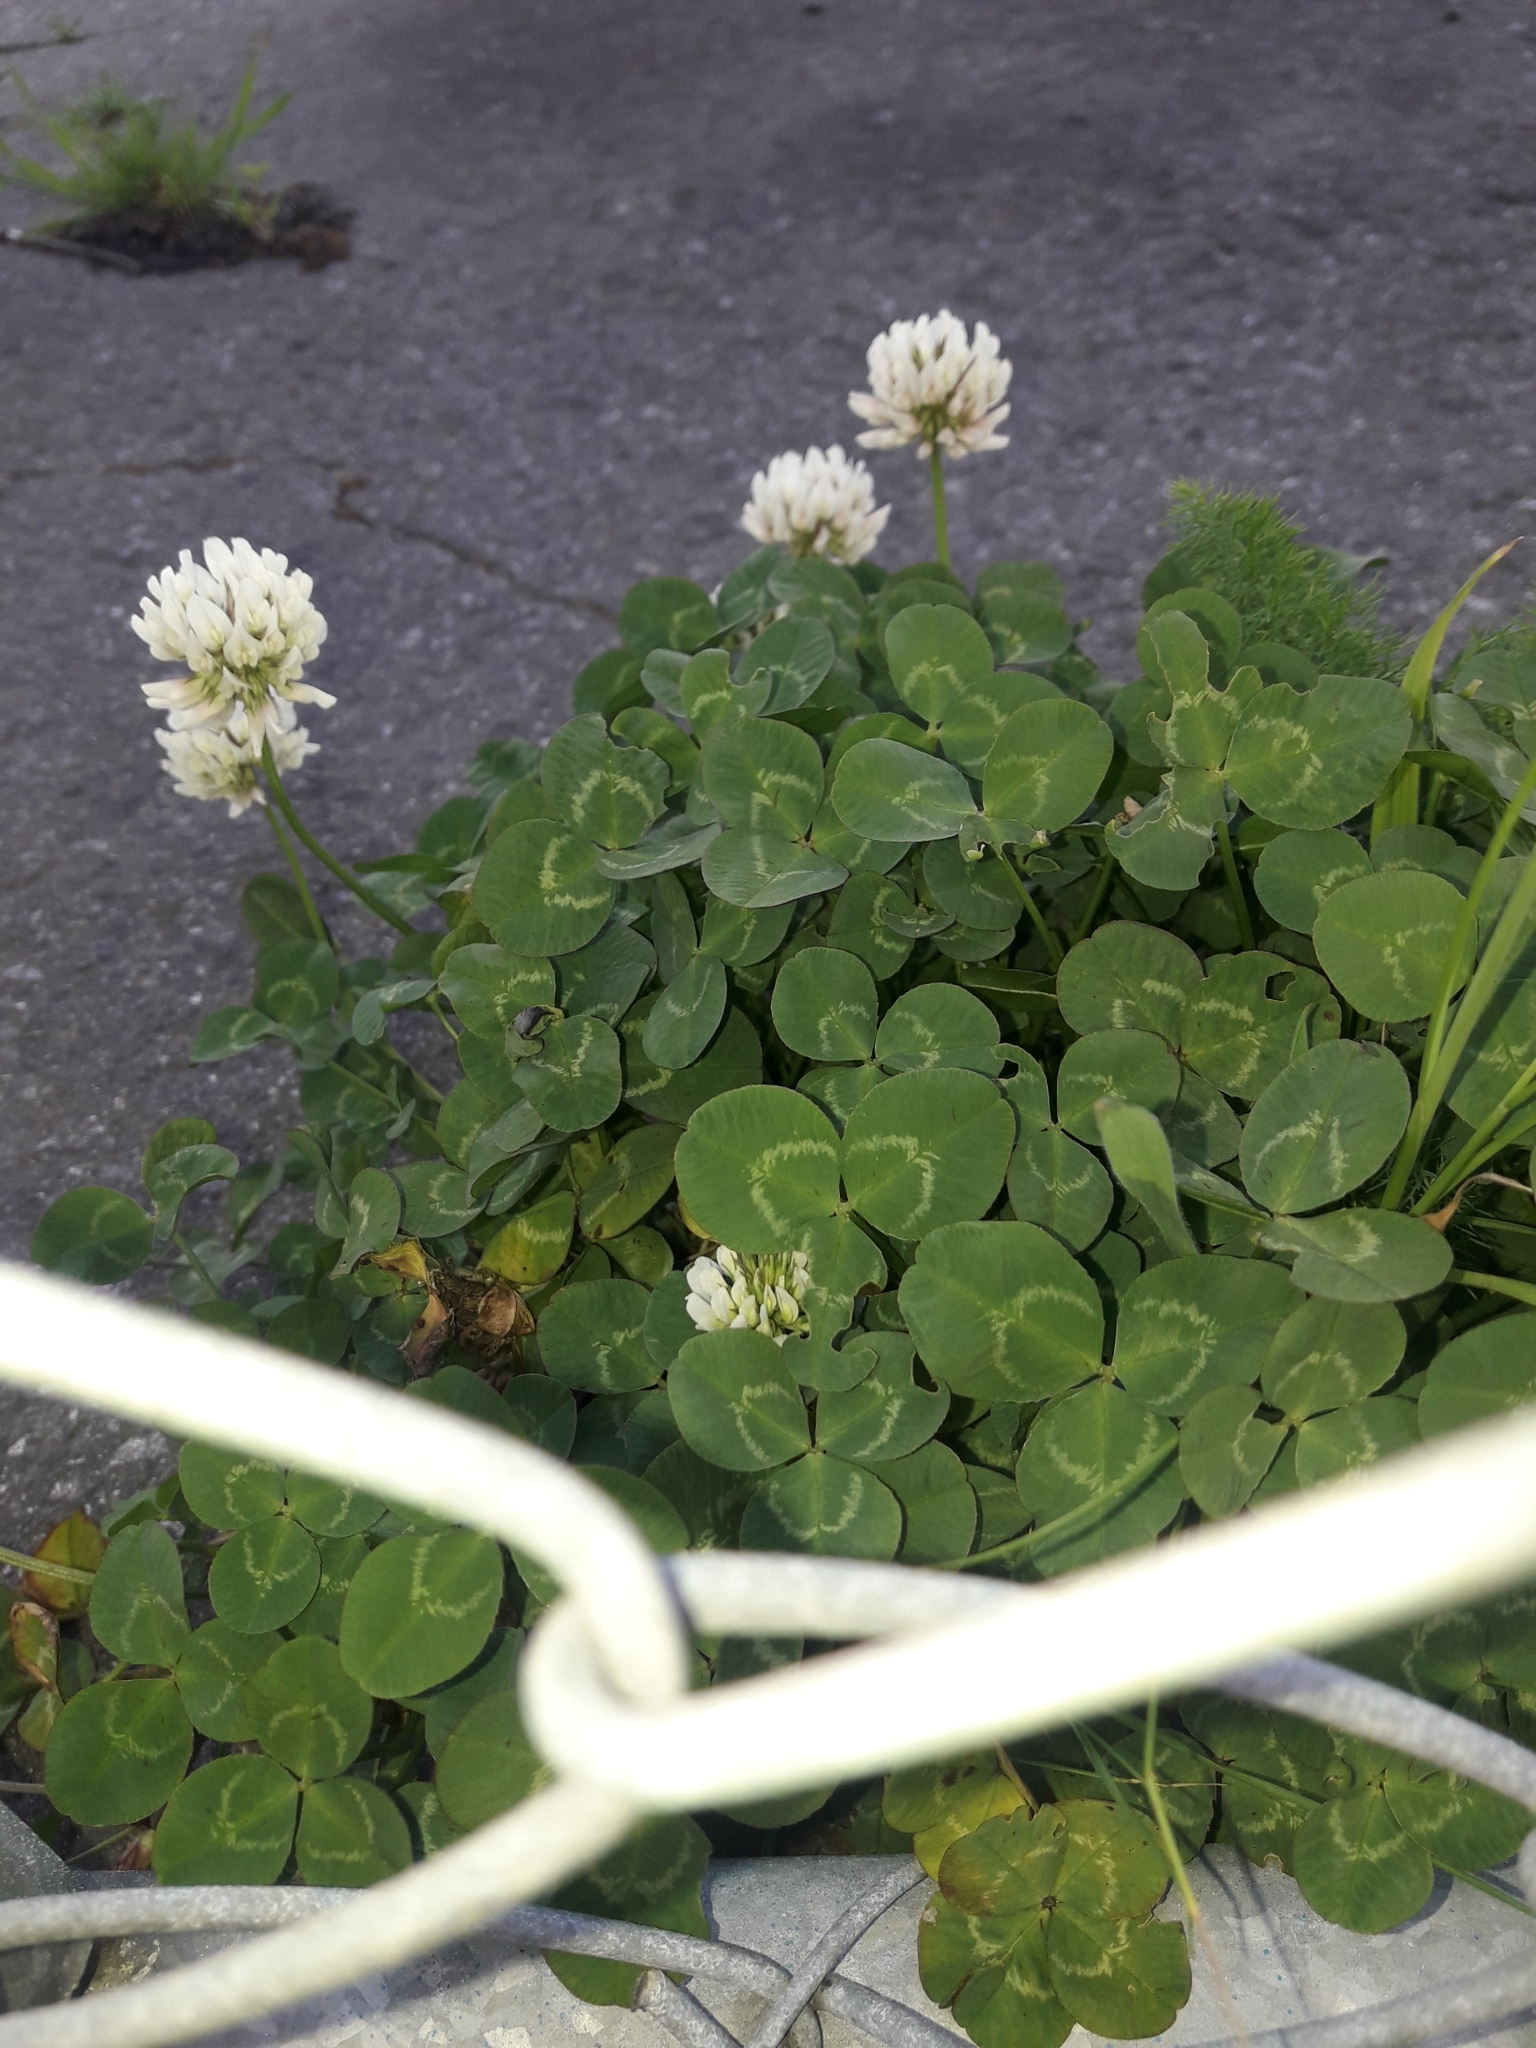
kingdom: Plantae
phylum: Tracheophyta
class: Magnoliopsida
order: Fabales
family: Fabaceae
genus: Trifolium
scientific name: Trifolium repens
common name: White clover
